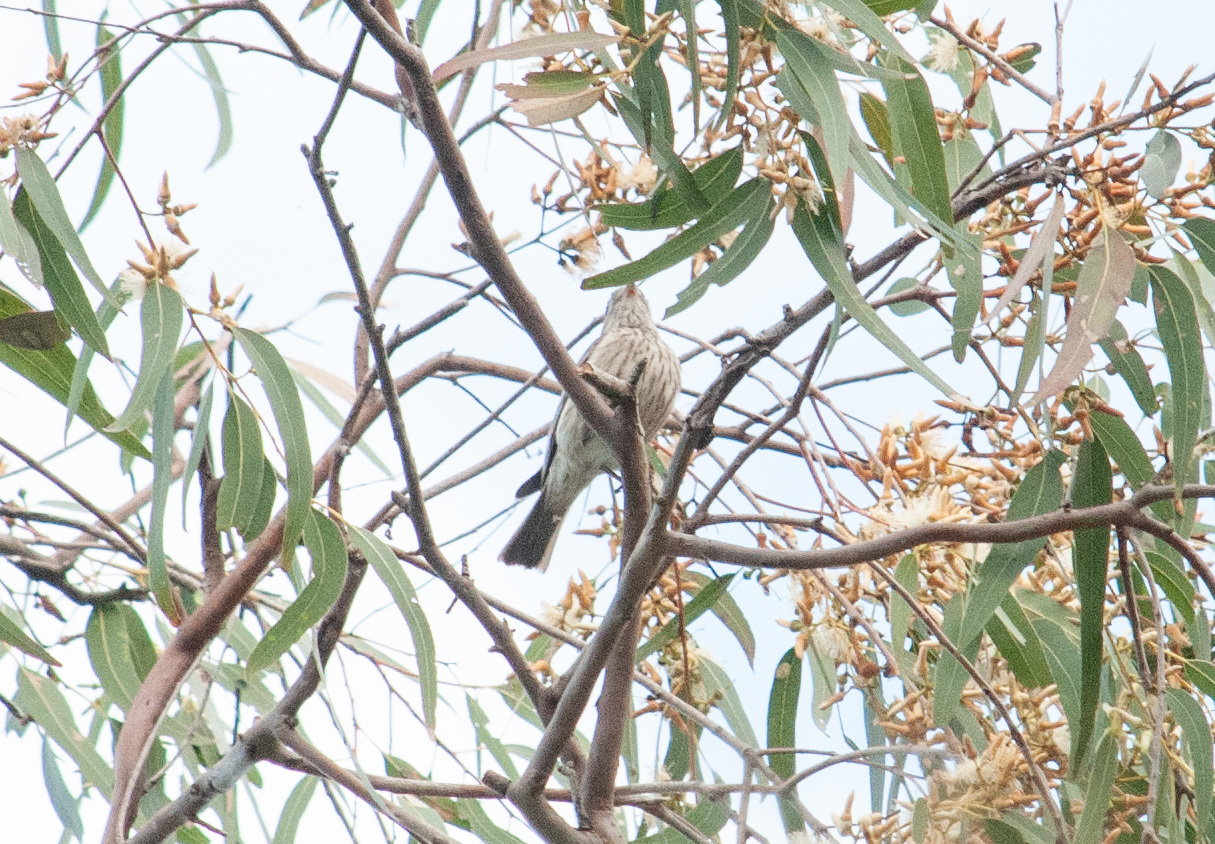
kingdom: Animalia
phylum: Chordata
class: Aves
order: Passeriformes
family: Pachycephalidae
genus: Pachycephala
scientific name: Pachycephala rufiventris
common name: Rufous whistler
